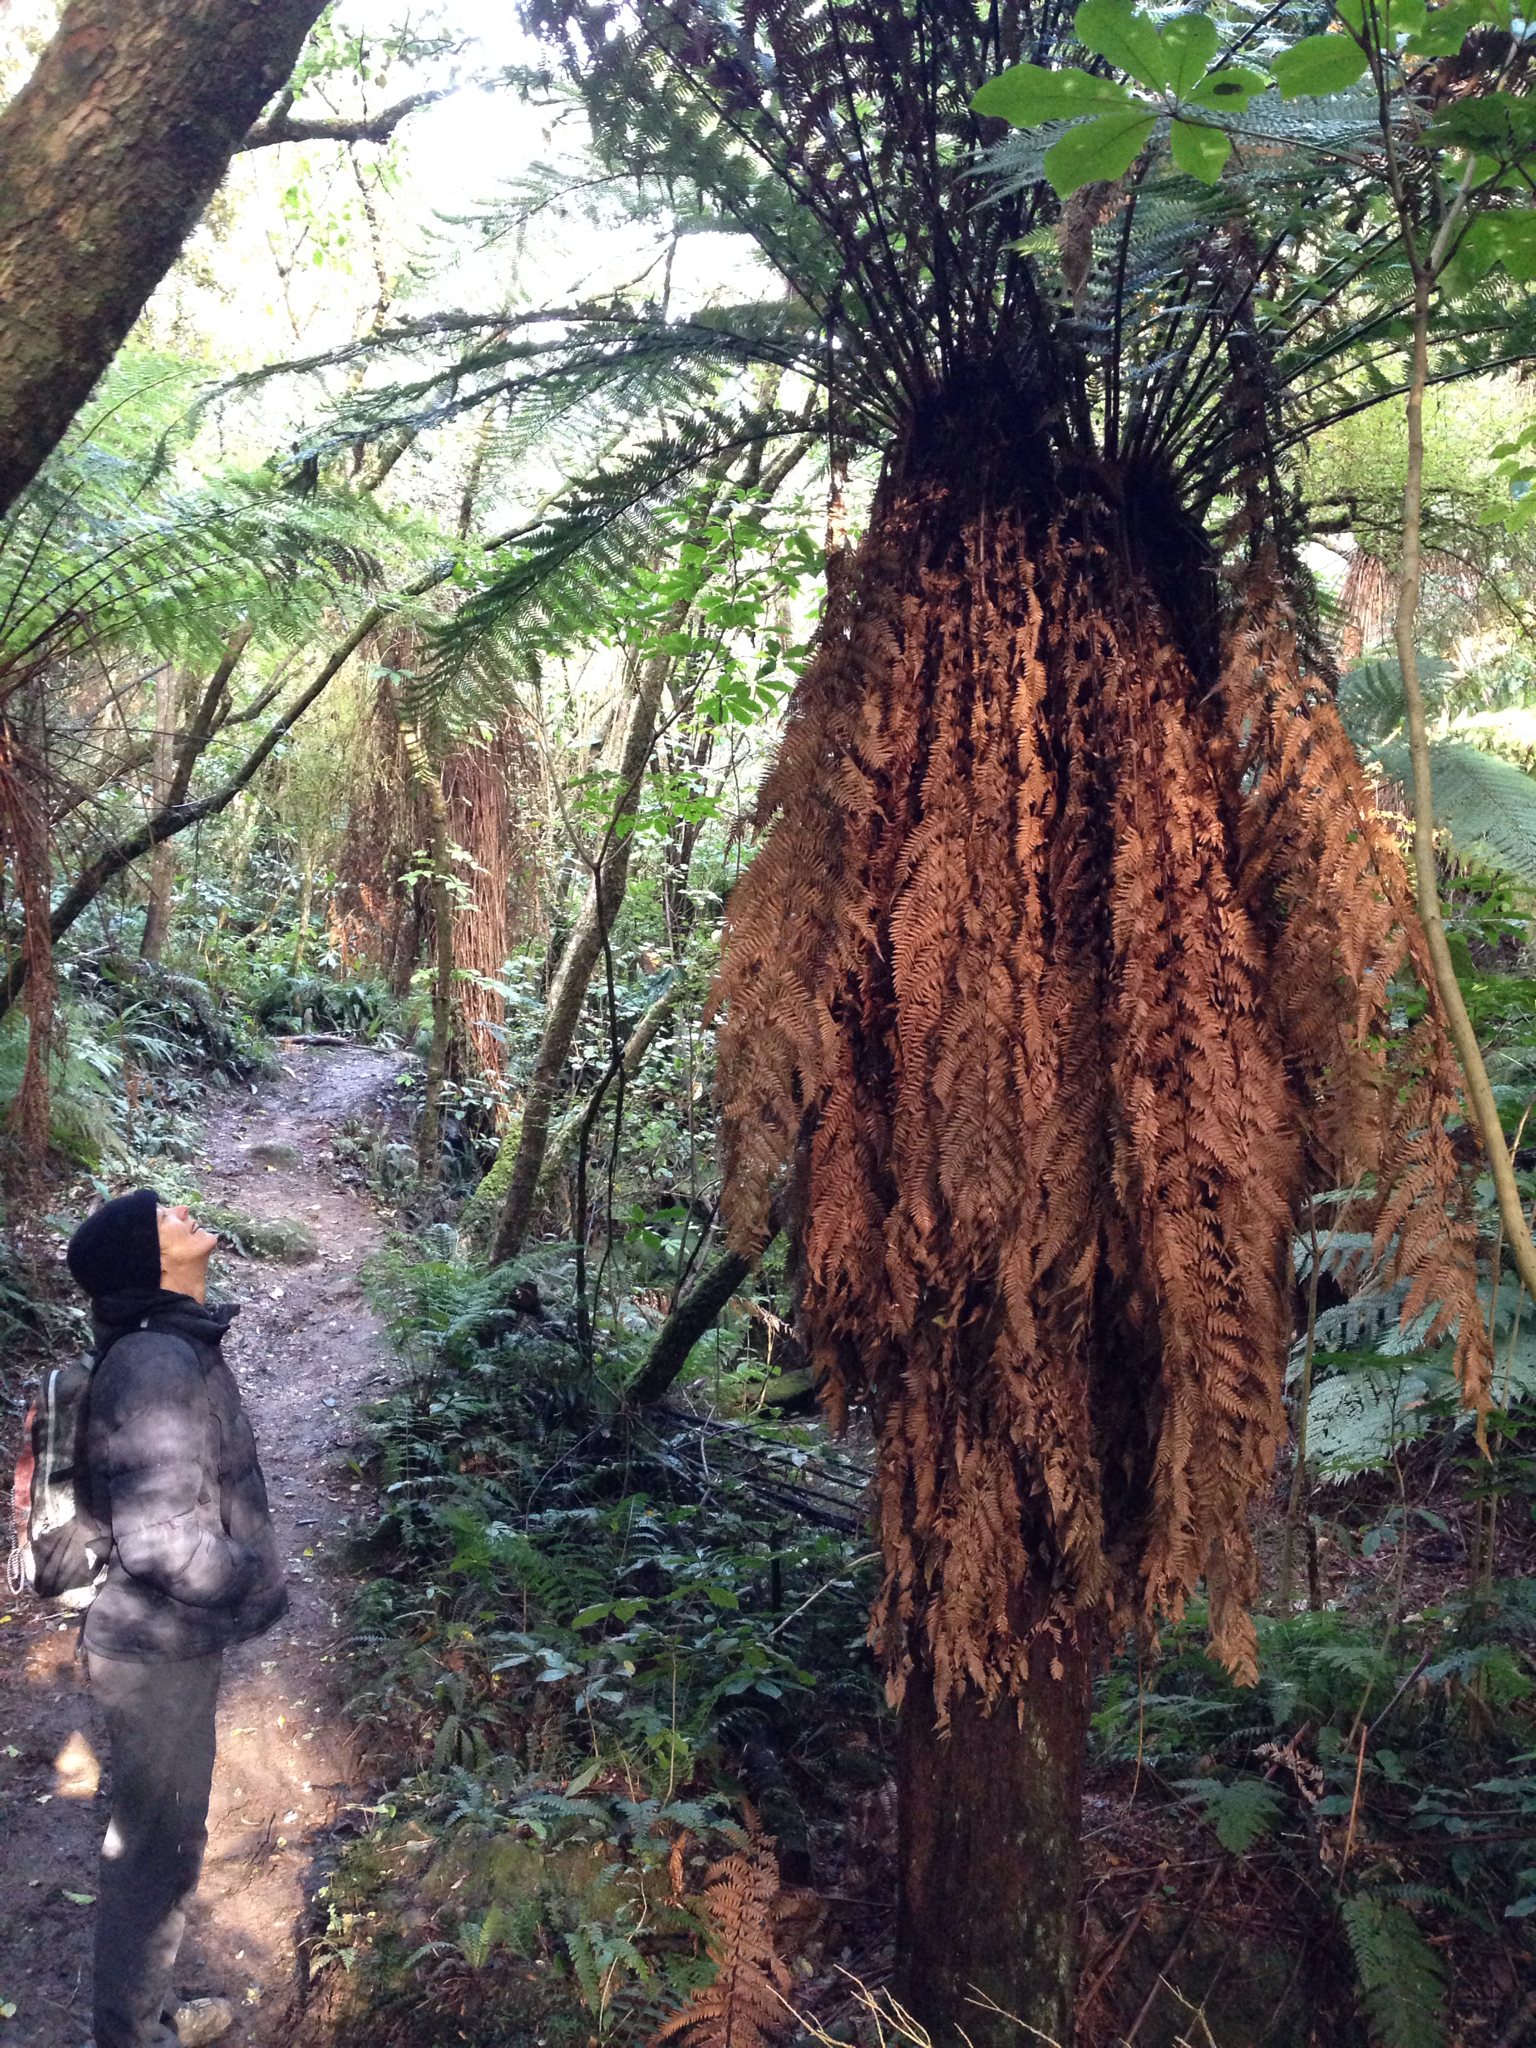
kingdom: Plantae
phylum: Tracheophyta
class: Polypodiopsida
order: Cyatheales
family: Dicksoniaceae
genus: Dicksonia
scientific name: Dicksonia fibrosa
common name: Golden tree fern
